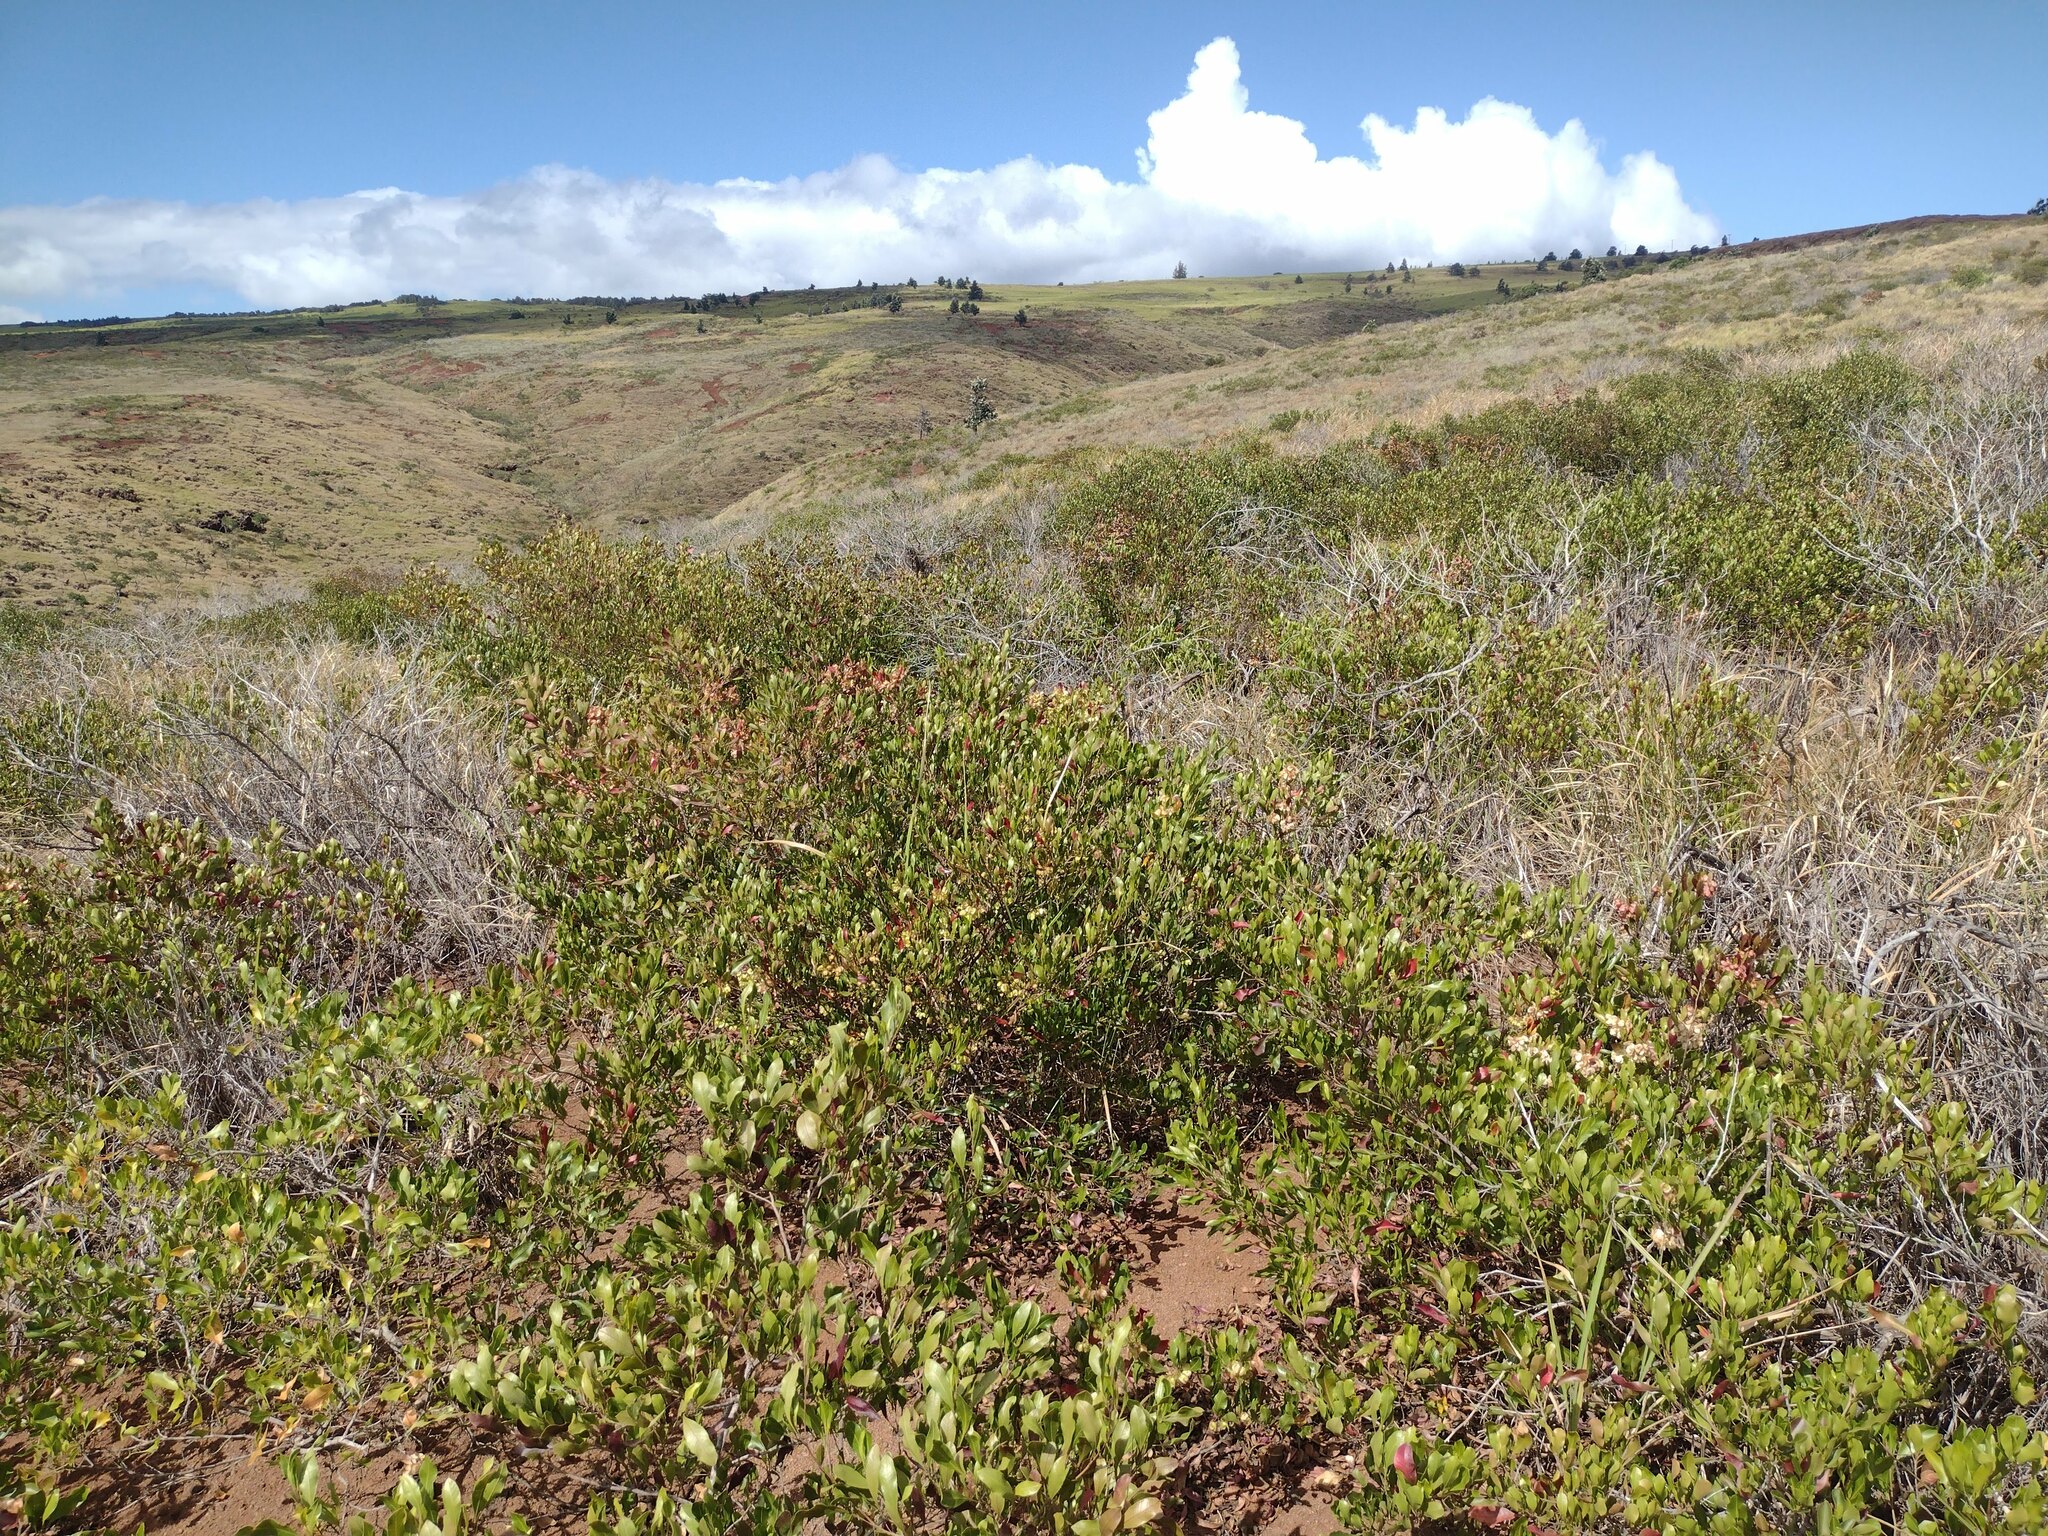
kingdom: Plantae
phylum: Tracheophyta
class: Magnoliopsida
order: Sapindales
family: Sapindaceae
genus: Dodonaea
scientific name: Dodonaea viscosa
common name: Hopbush
